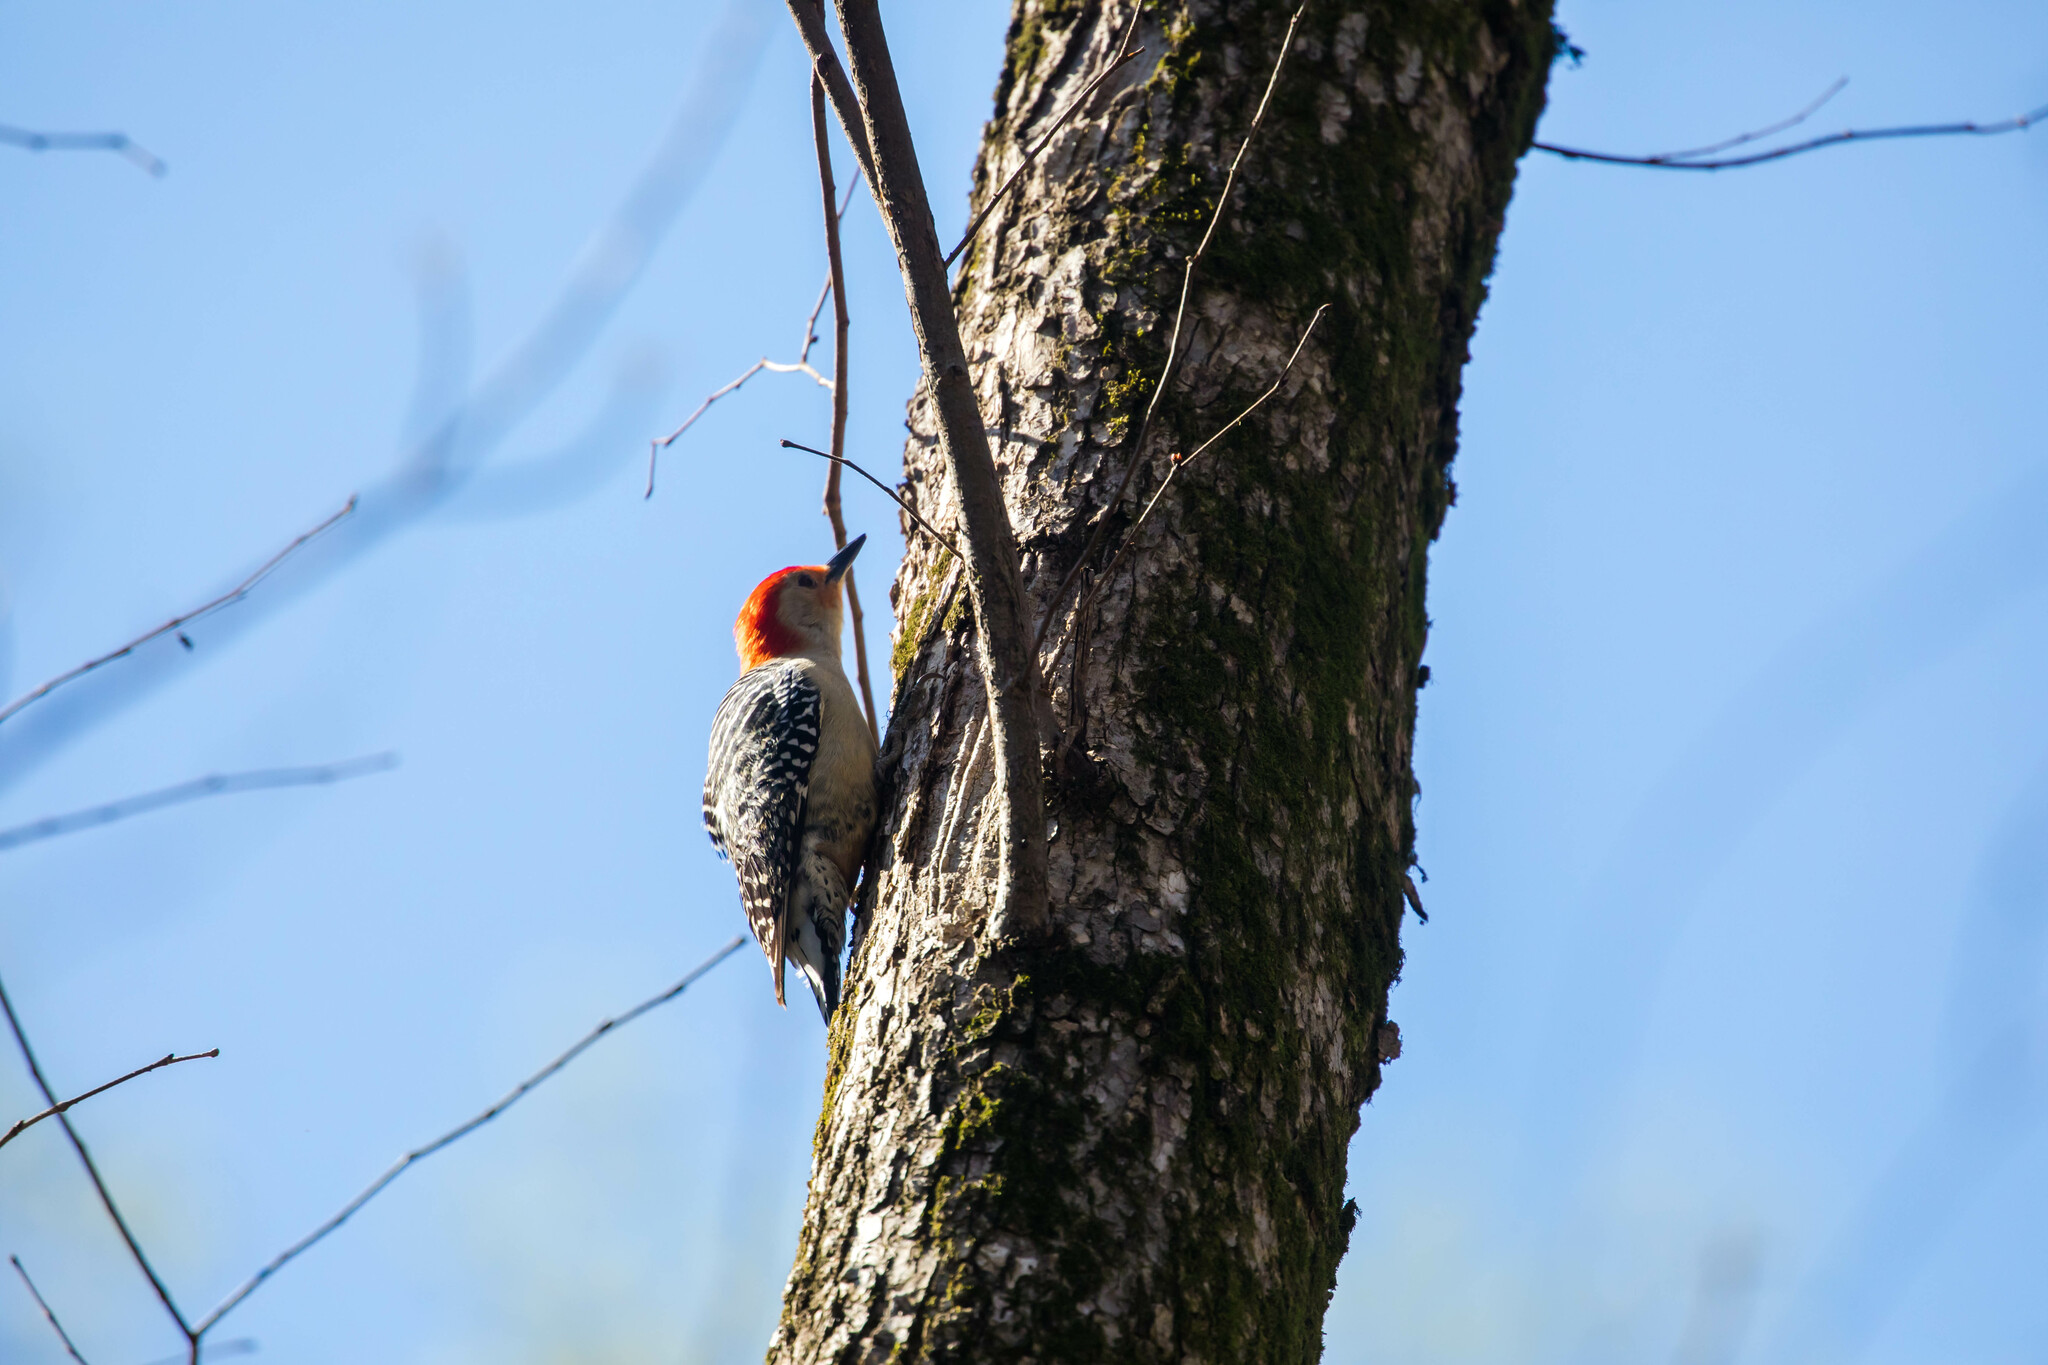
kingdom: Animalia
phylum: Chordata
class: Aves
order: Piciformes
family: Picidae
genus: Melanerpes
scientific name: Melanerpes carolinus
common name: Red-bellied woodpecker
